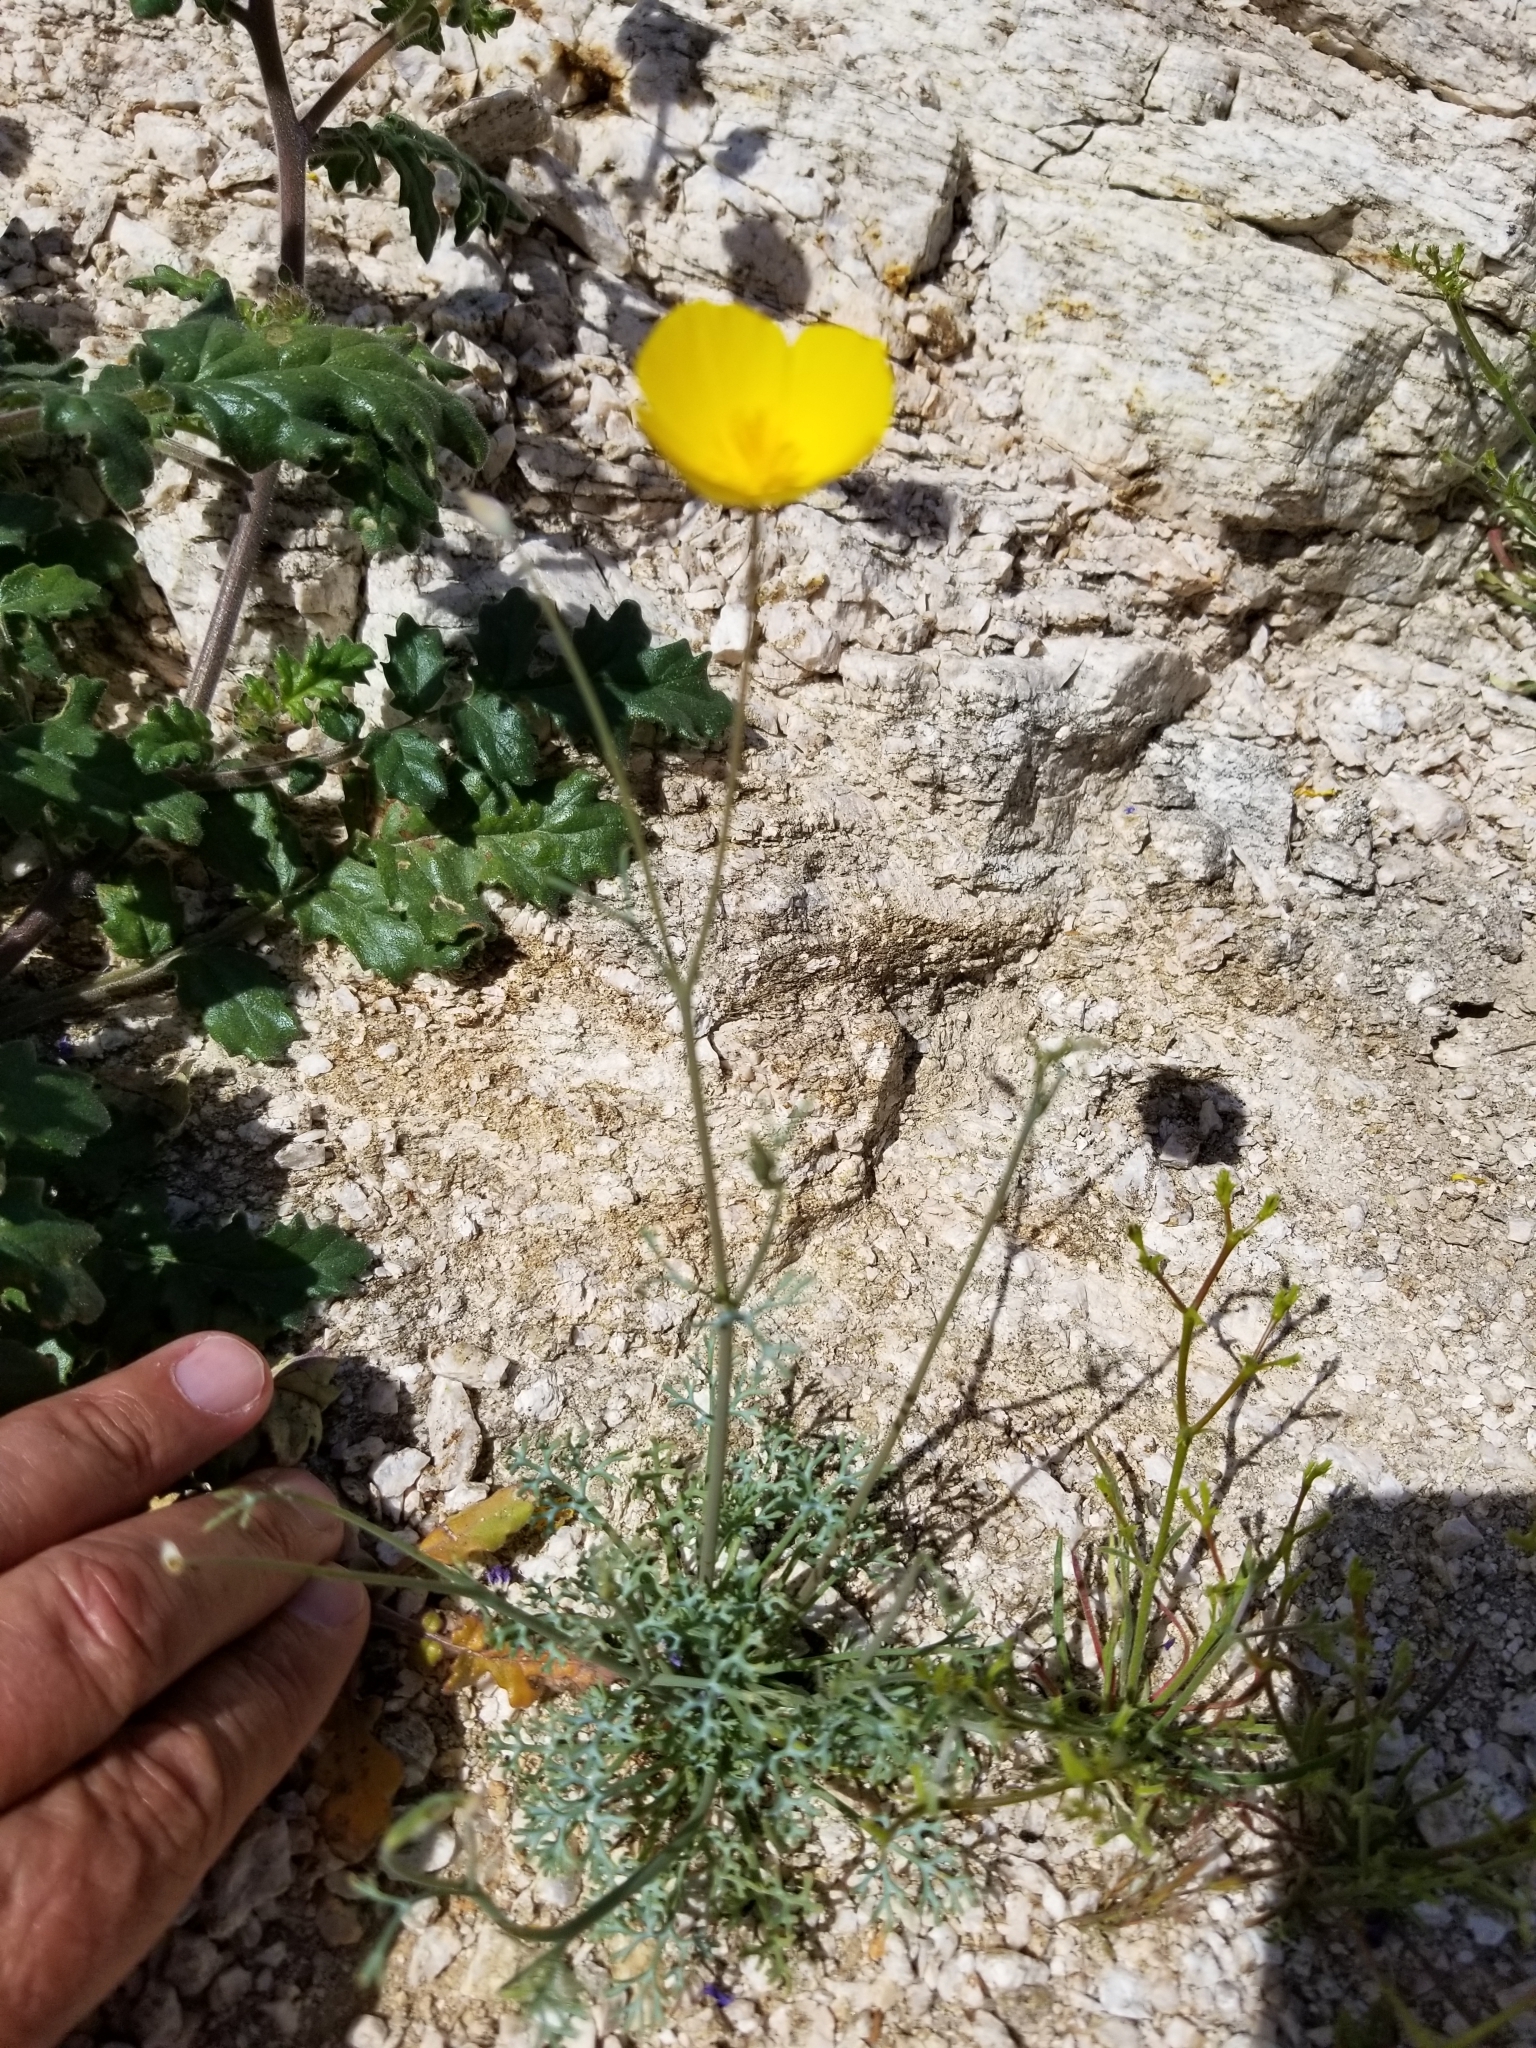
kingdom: Plantae
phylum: Tracheophyta
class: Magnoliopsida
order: Ranunculales
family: Papaveraceae
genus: Eschscholzia
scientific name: Eschscholzia parishii
